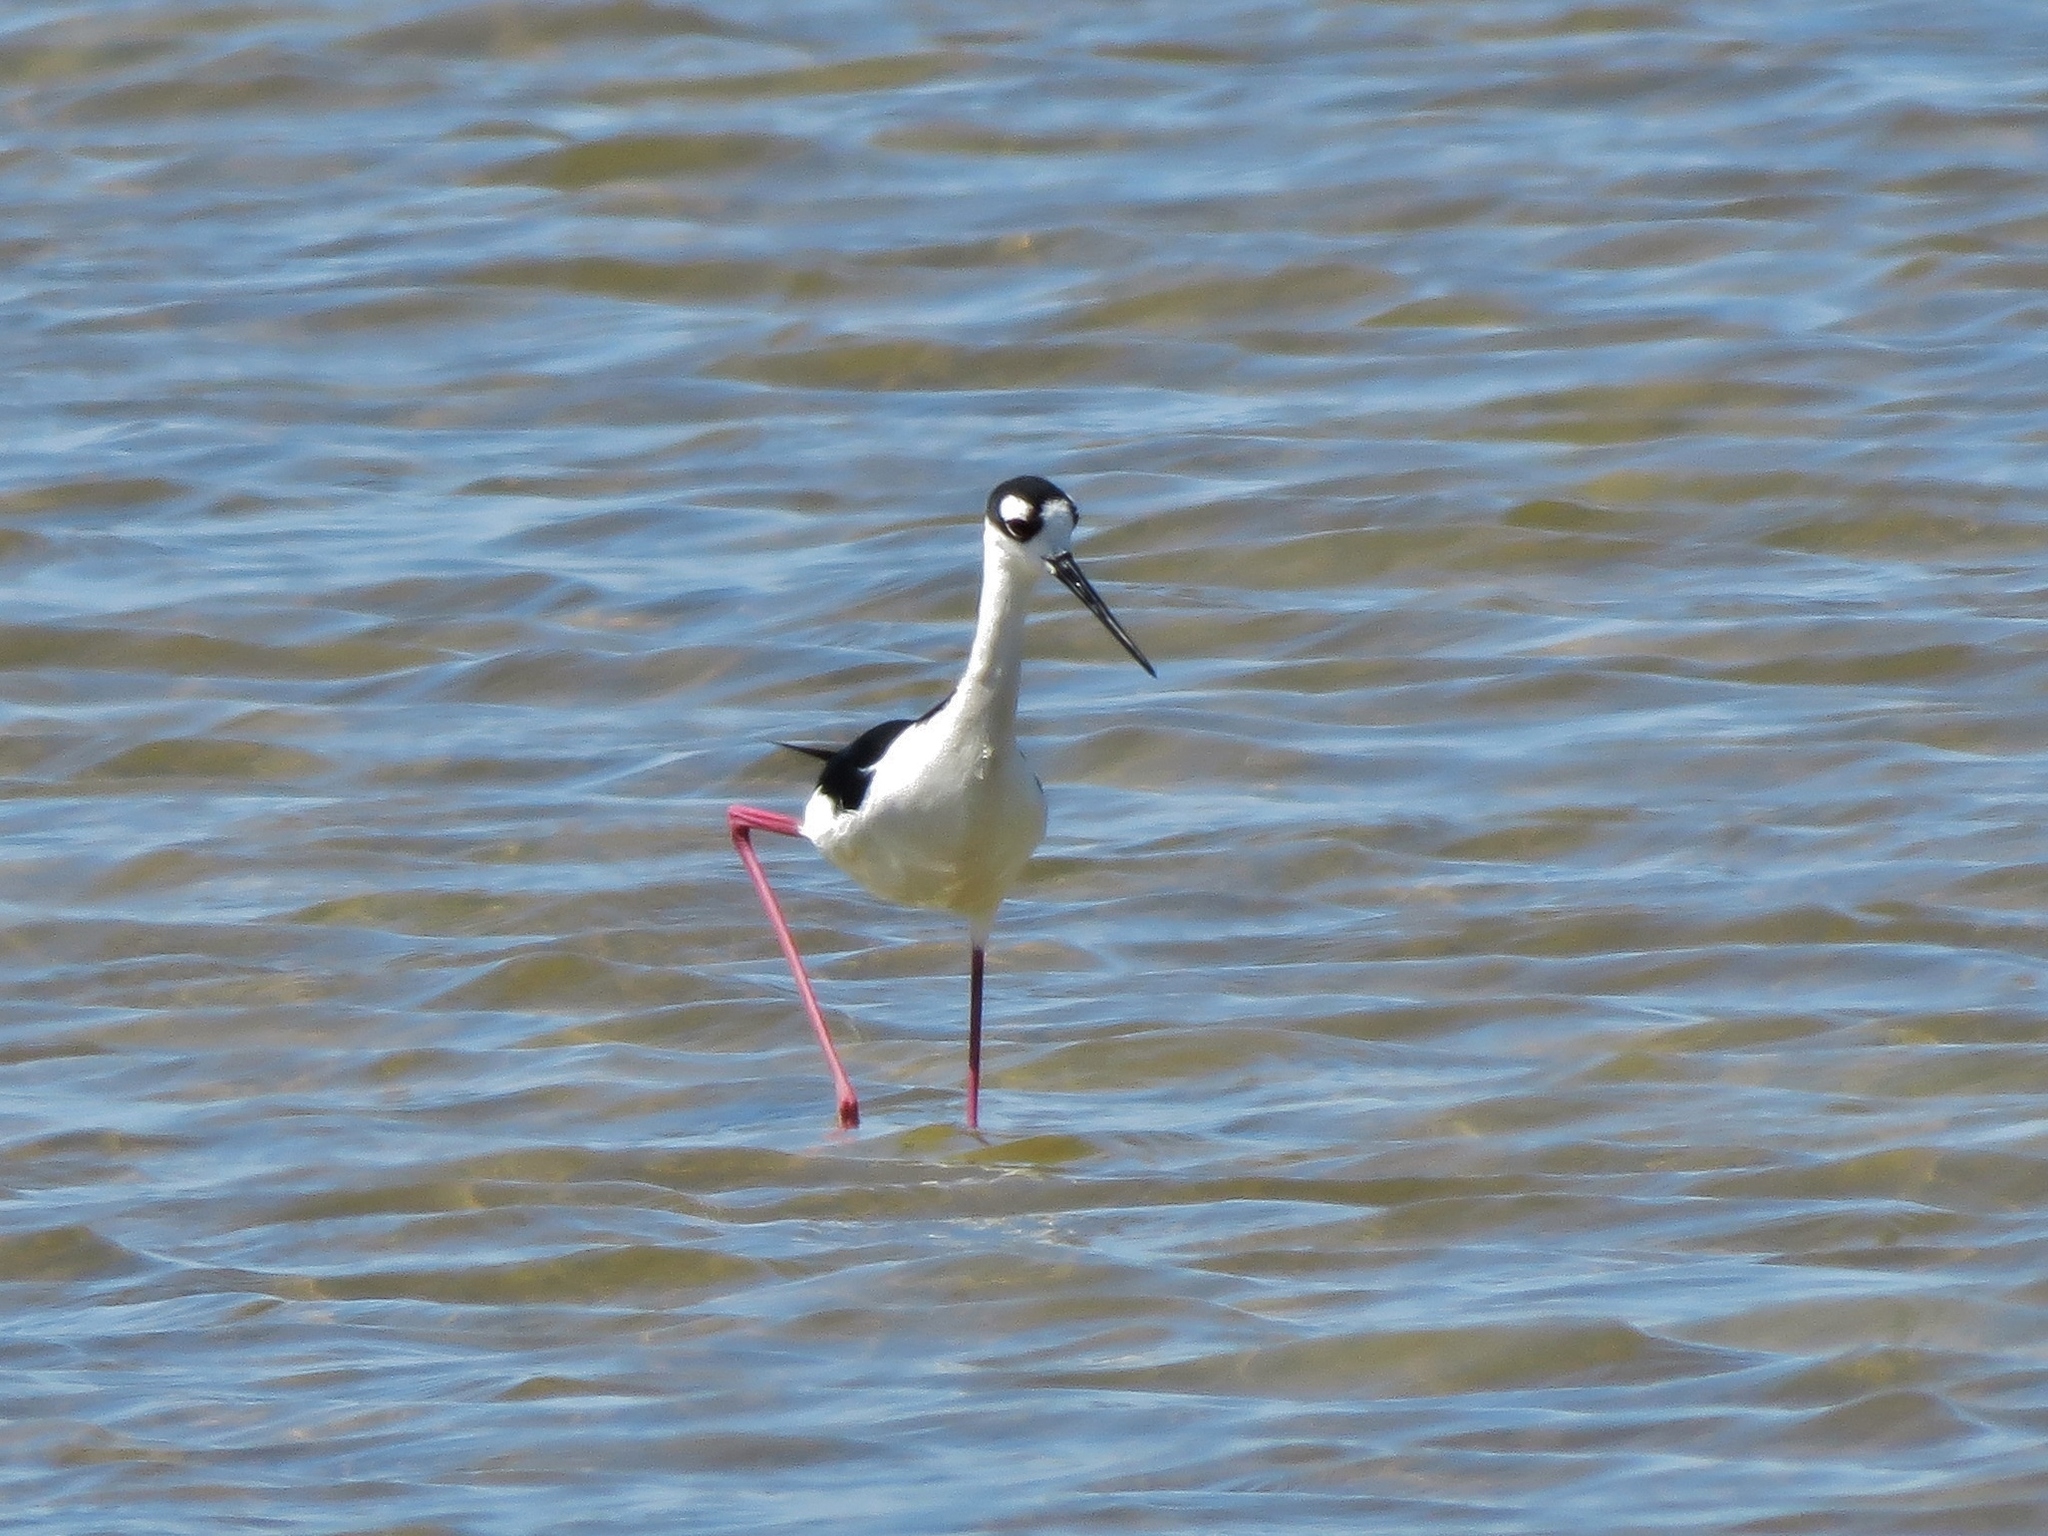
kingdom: Animalia
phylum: Chordata
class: Aves
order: Charadriiformes
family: Recurvirostridae
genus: Himantopus
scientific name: Himantopus mexicanus
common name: Black-necked stilt
